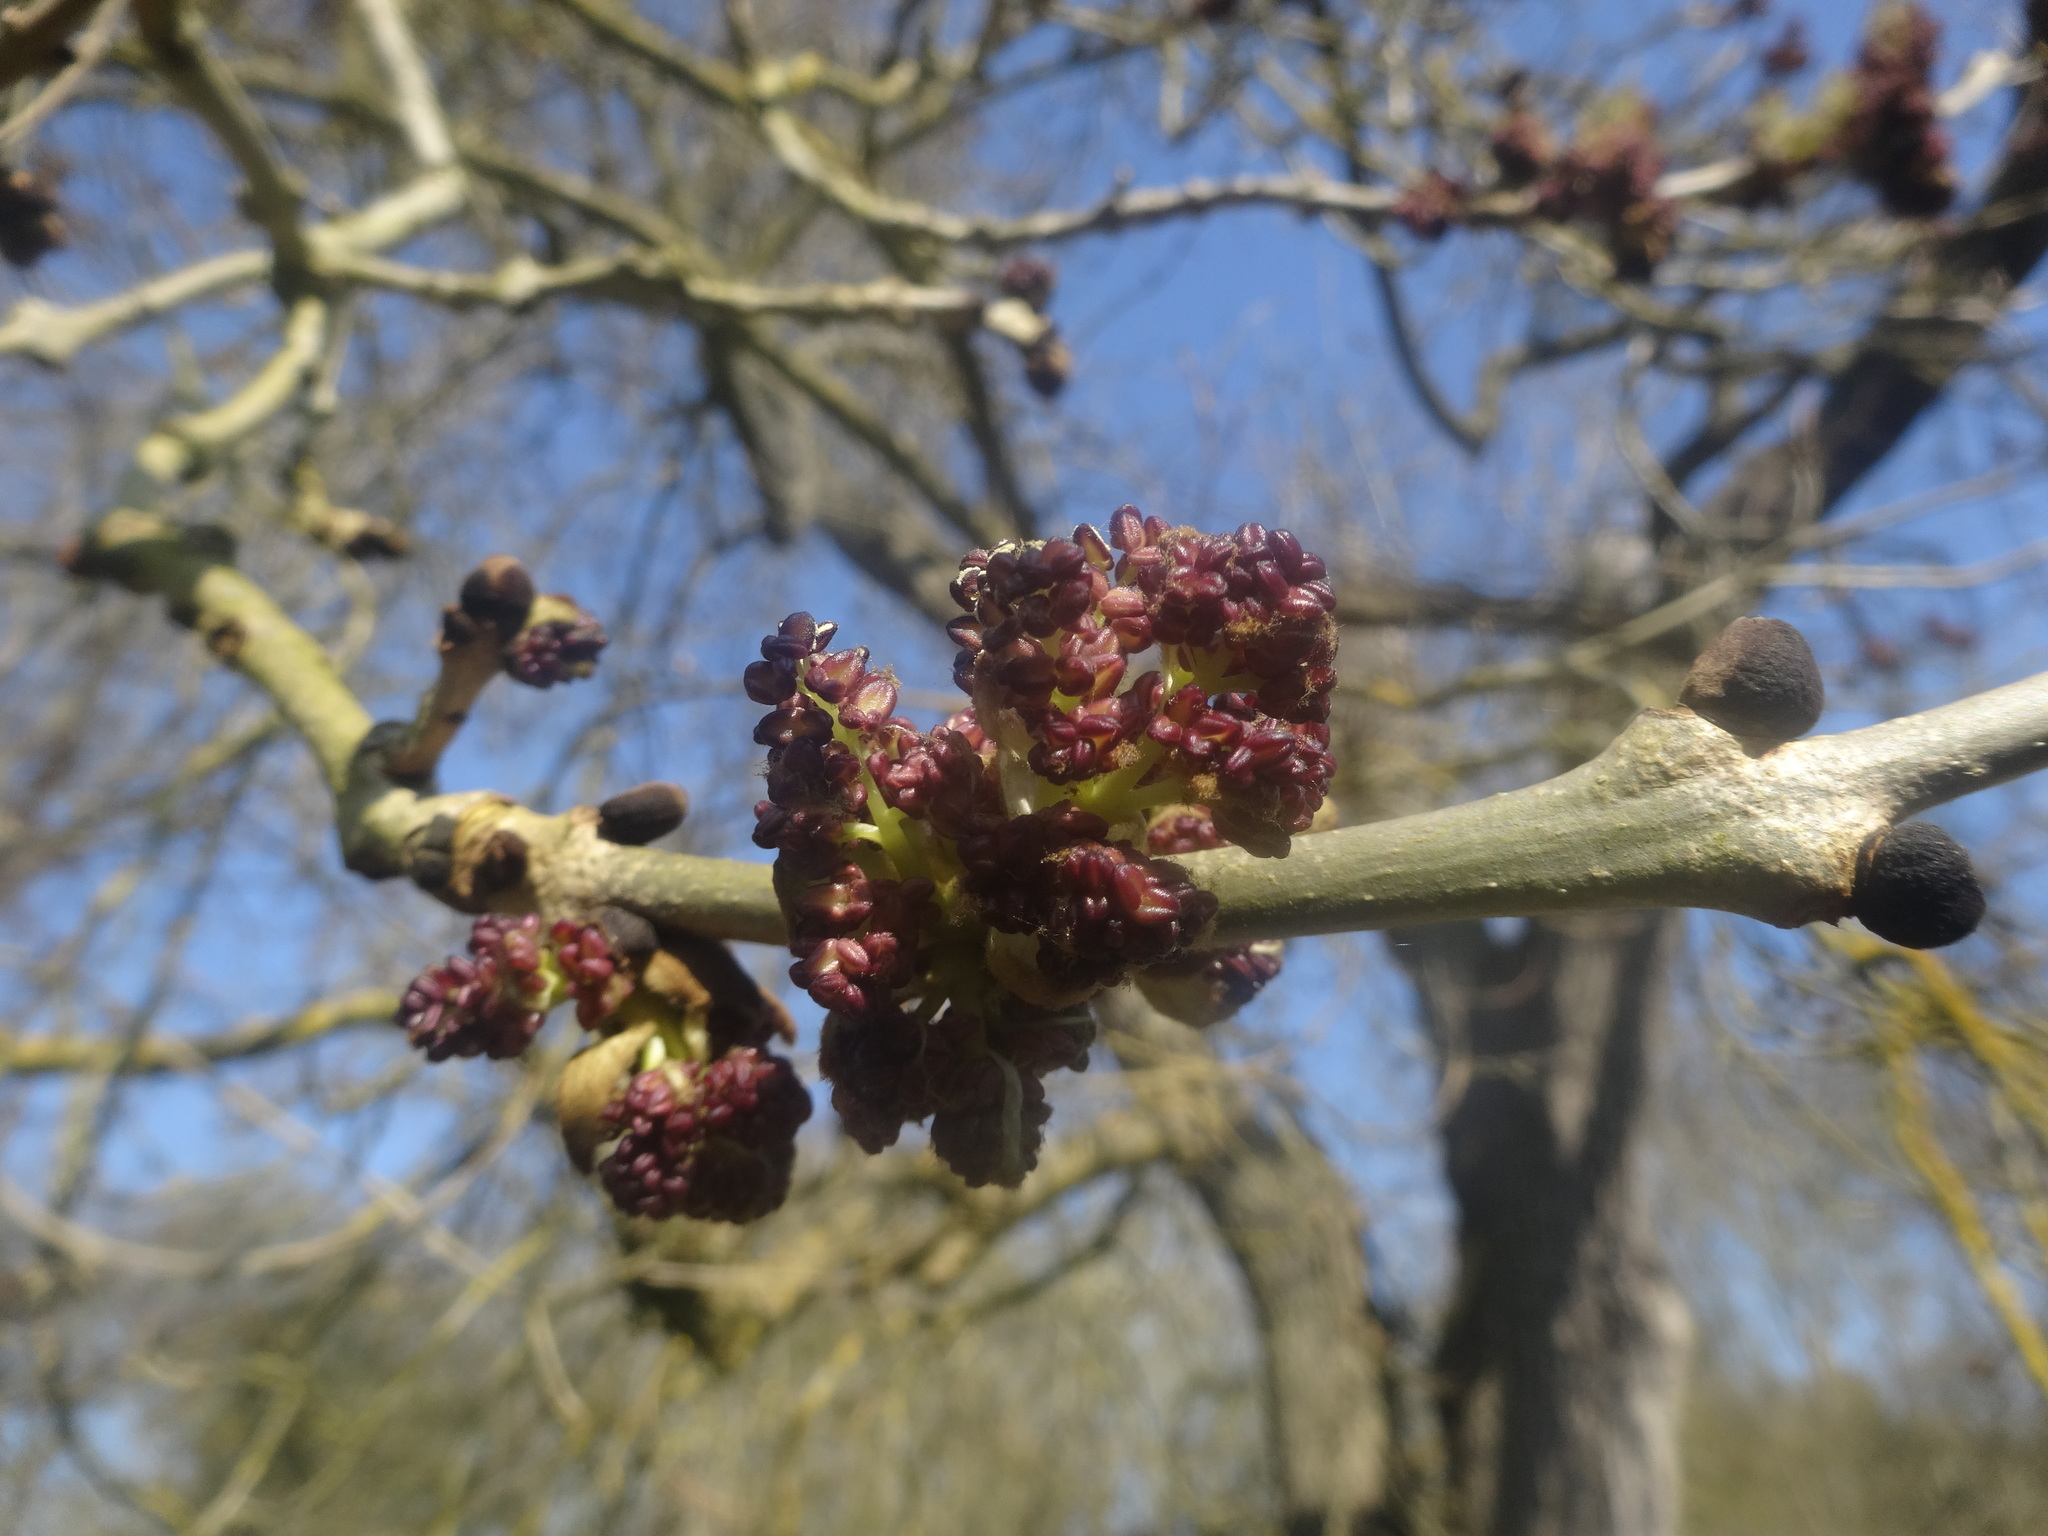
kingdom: Plantae
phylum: Tracheophyta
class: Magnoliopsida
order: Lamiales
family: Oleaceae
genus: Fraxinus
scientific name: Fraxinus excelsior
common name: European ash
